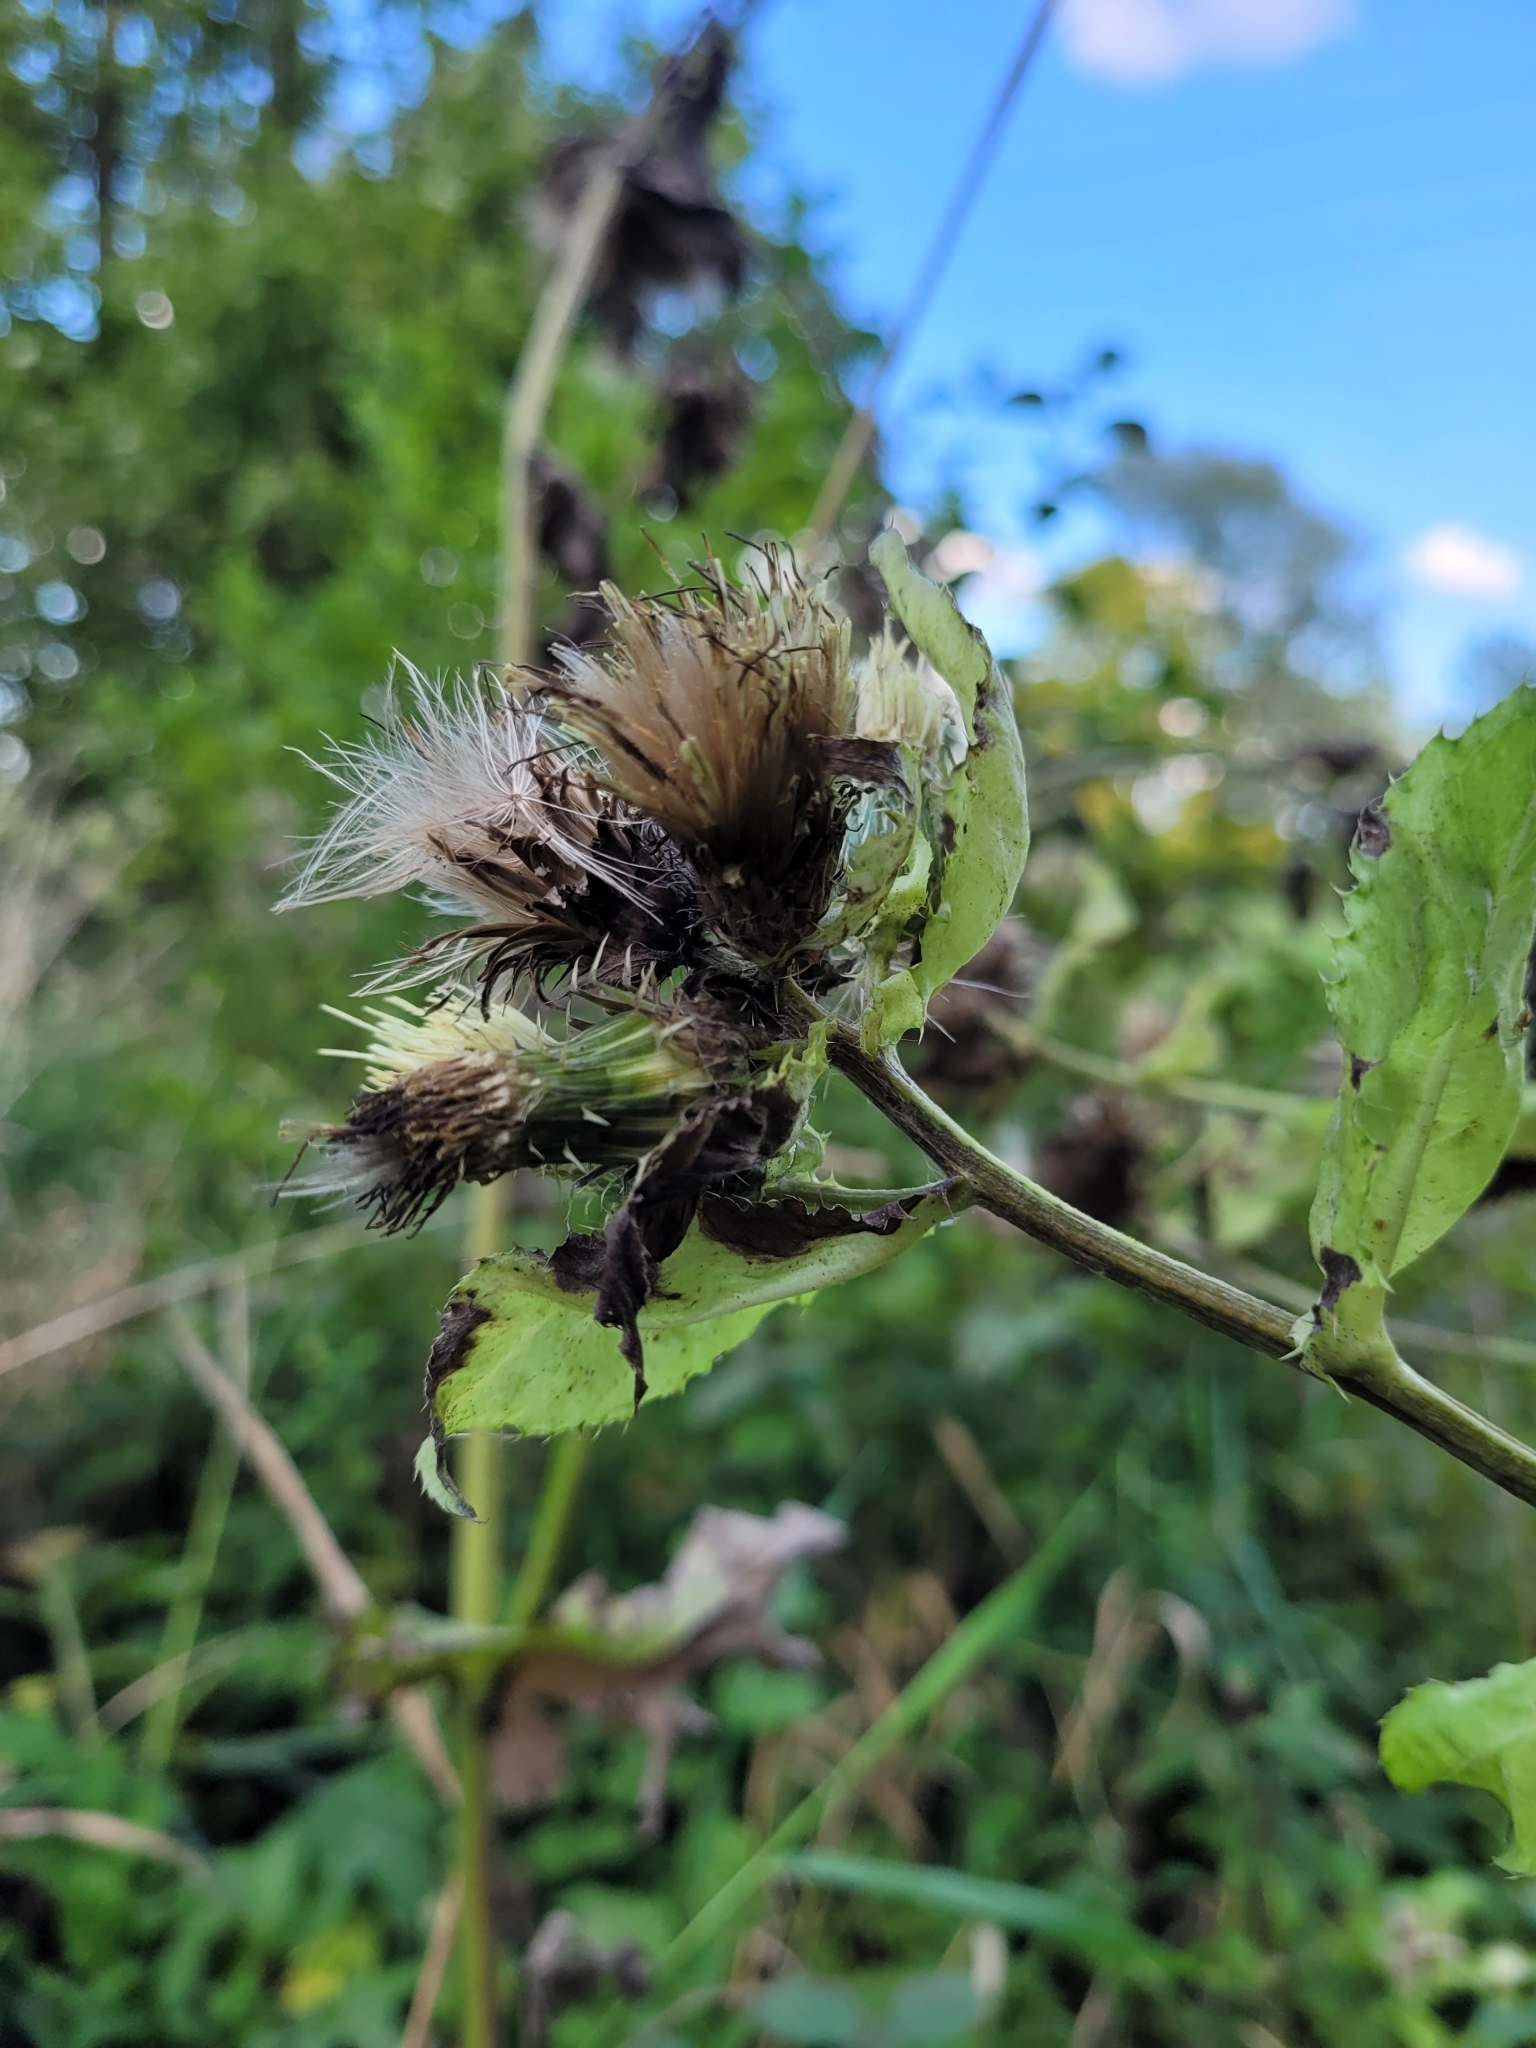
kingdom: Plantae
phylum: Tracheophyta
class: Magnoliopsida
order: Asterales
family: Asteraceae
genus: Cirsium
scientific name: Cirsium oleraceum
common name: Cabbage thistle
